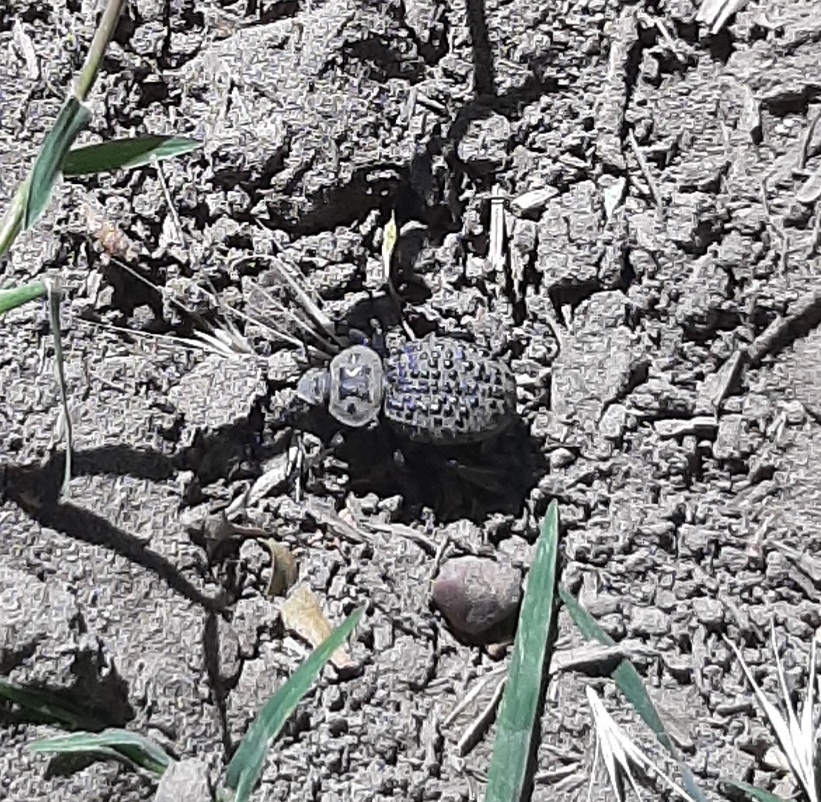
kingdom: Animalia
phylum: Arthropoda
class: Insecta
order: Coleoptera
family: Tenebrionidae
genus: Scotobius
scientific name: Scotobius pilularius
